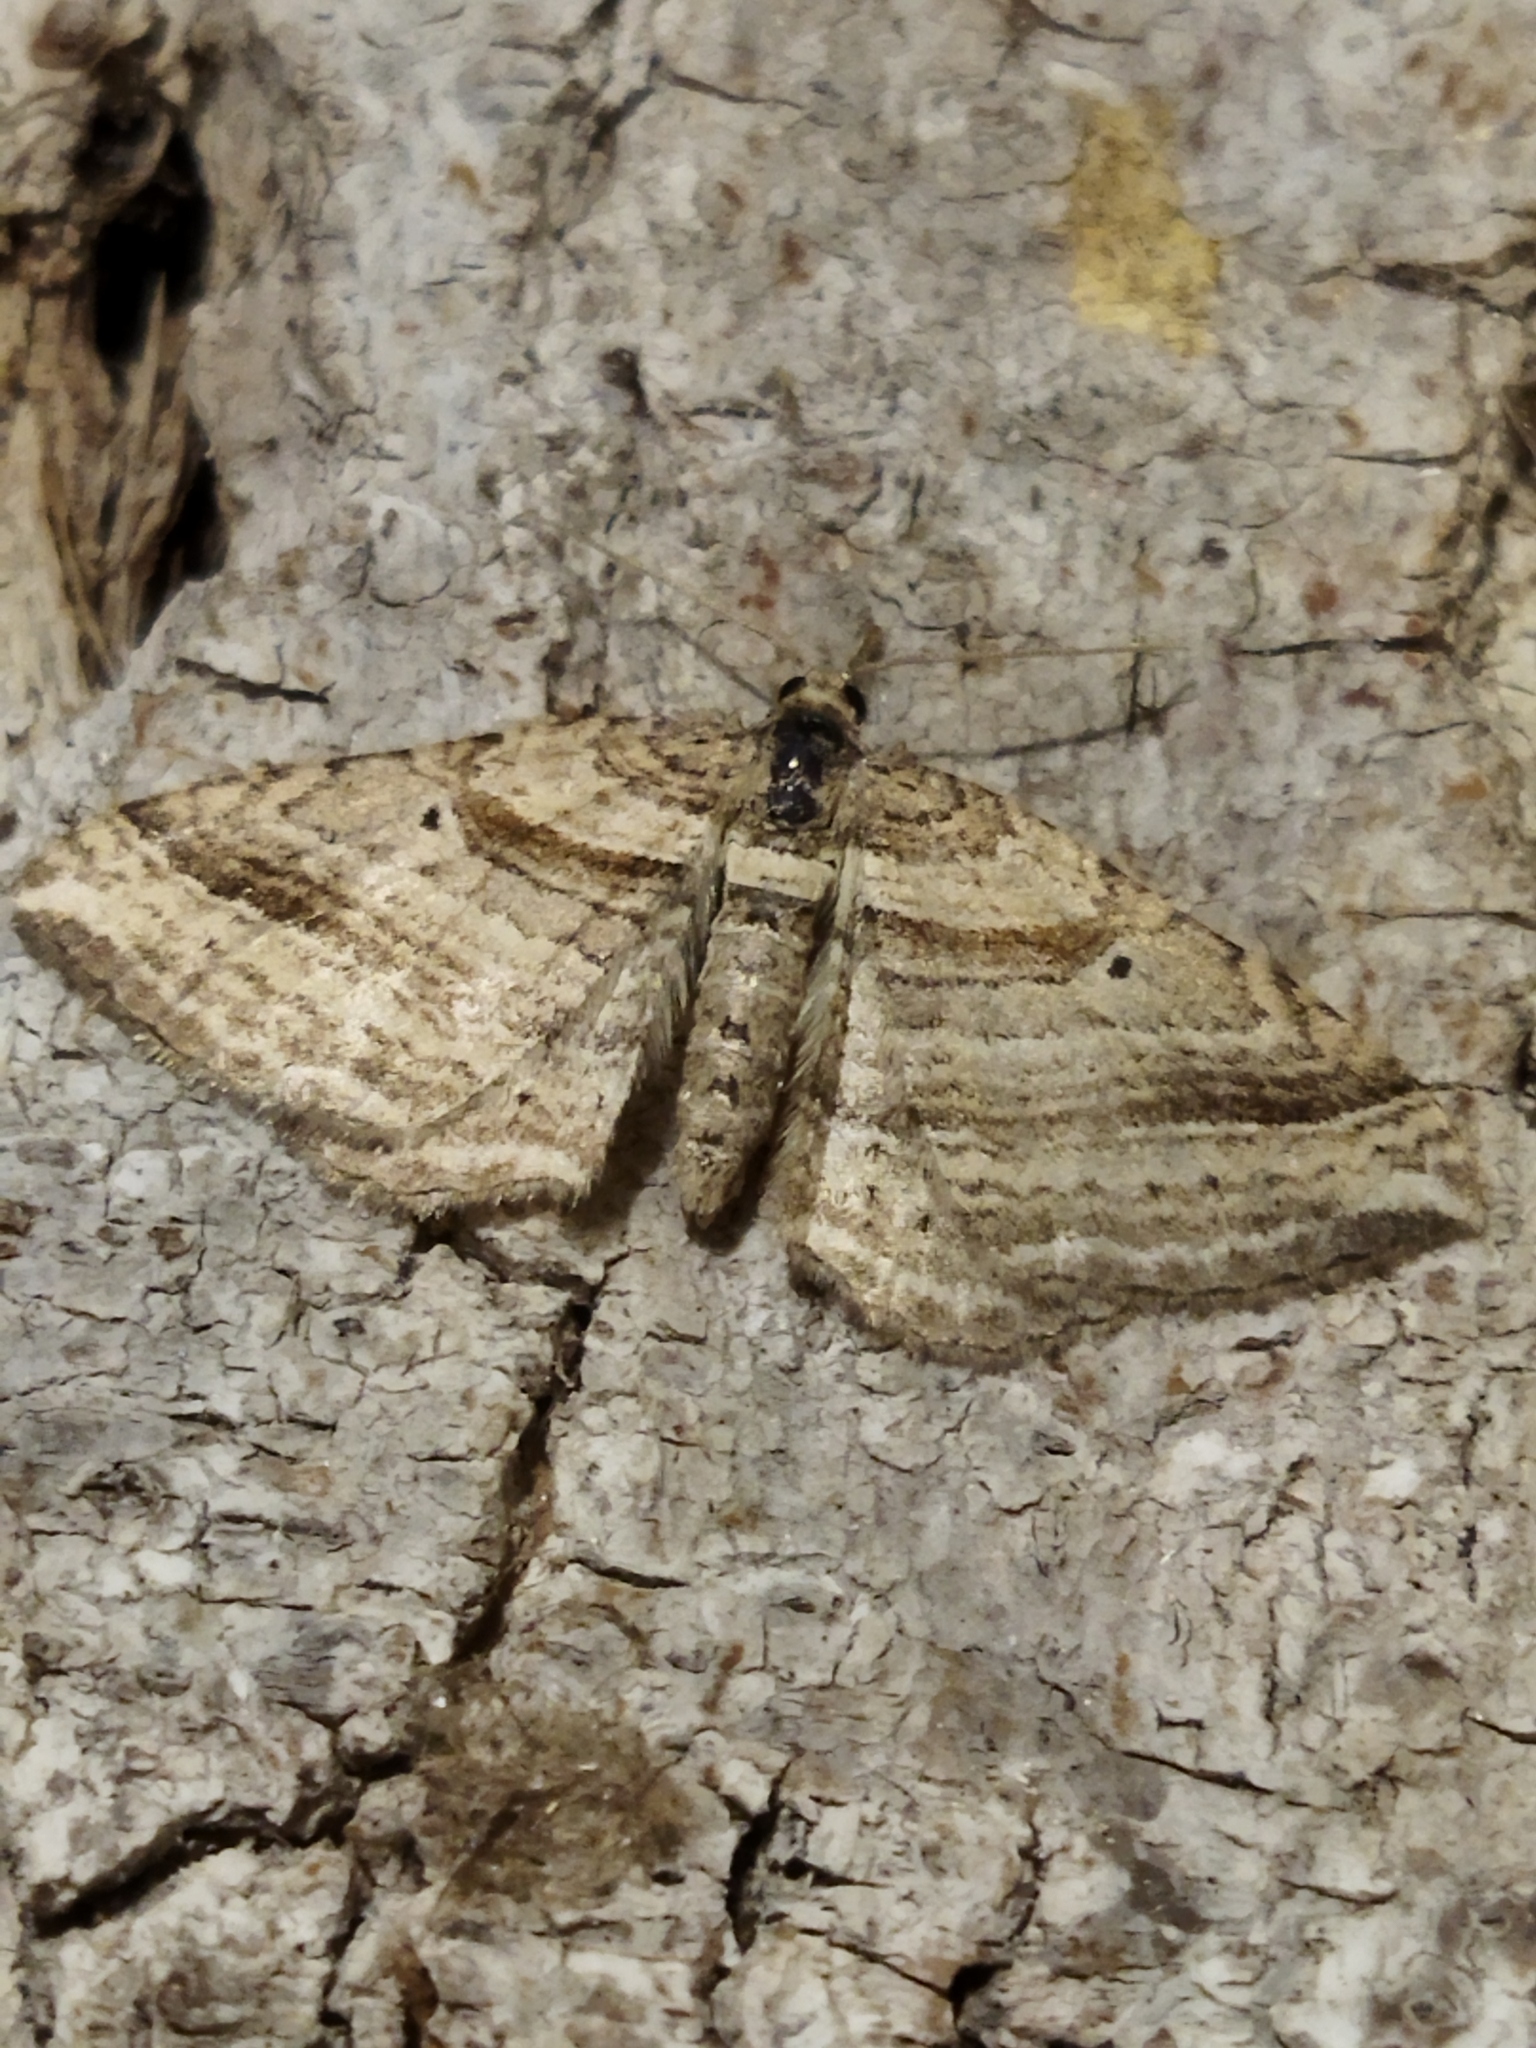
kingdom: Animalia
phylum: Arthropoda
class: Insecta
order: Lepidoptera
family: Geometridae
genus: Costaconvexa
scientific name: Costaconvexa polygrammata
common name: Many-lined
